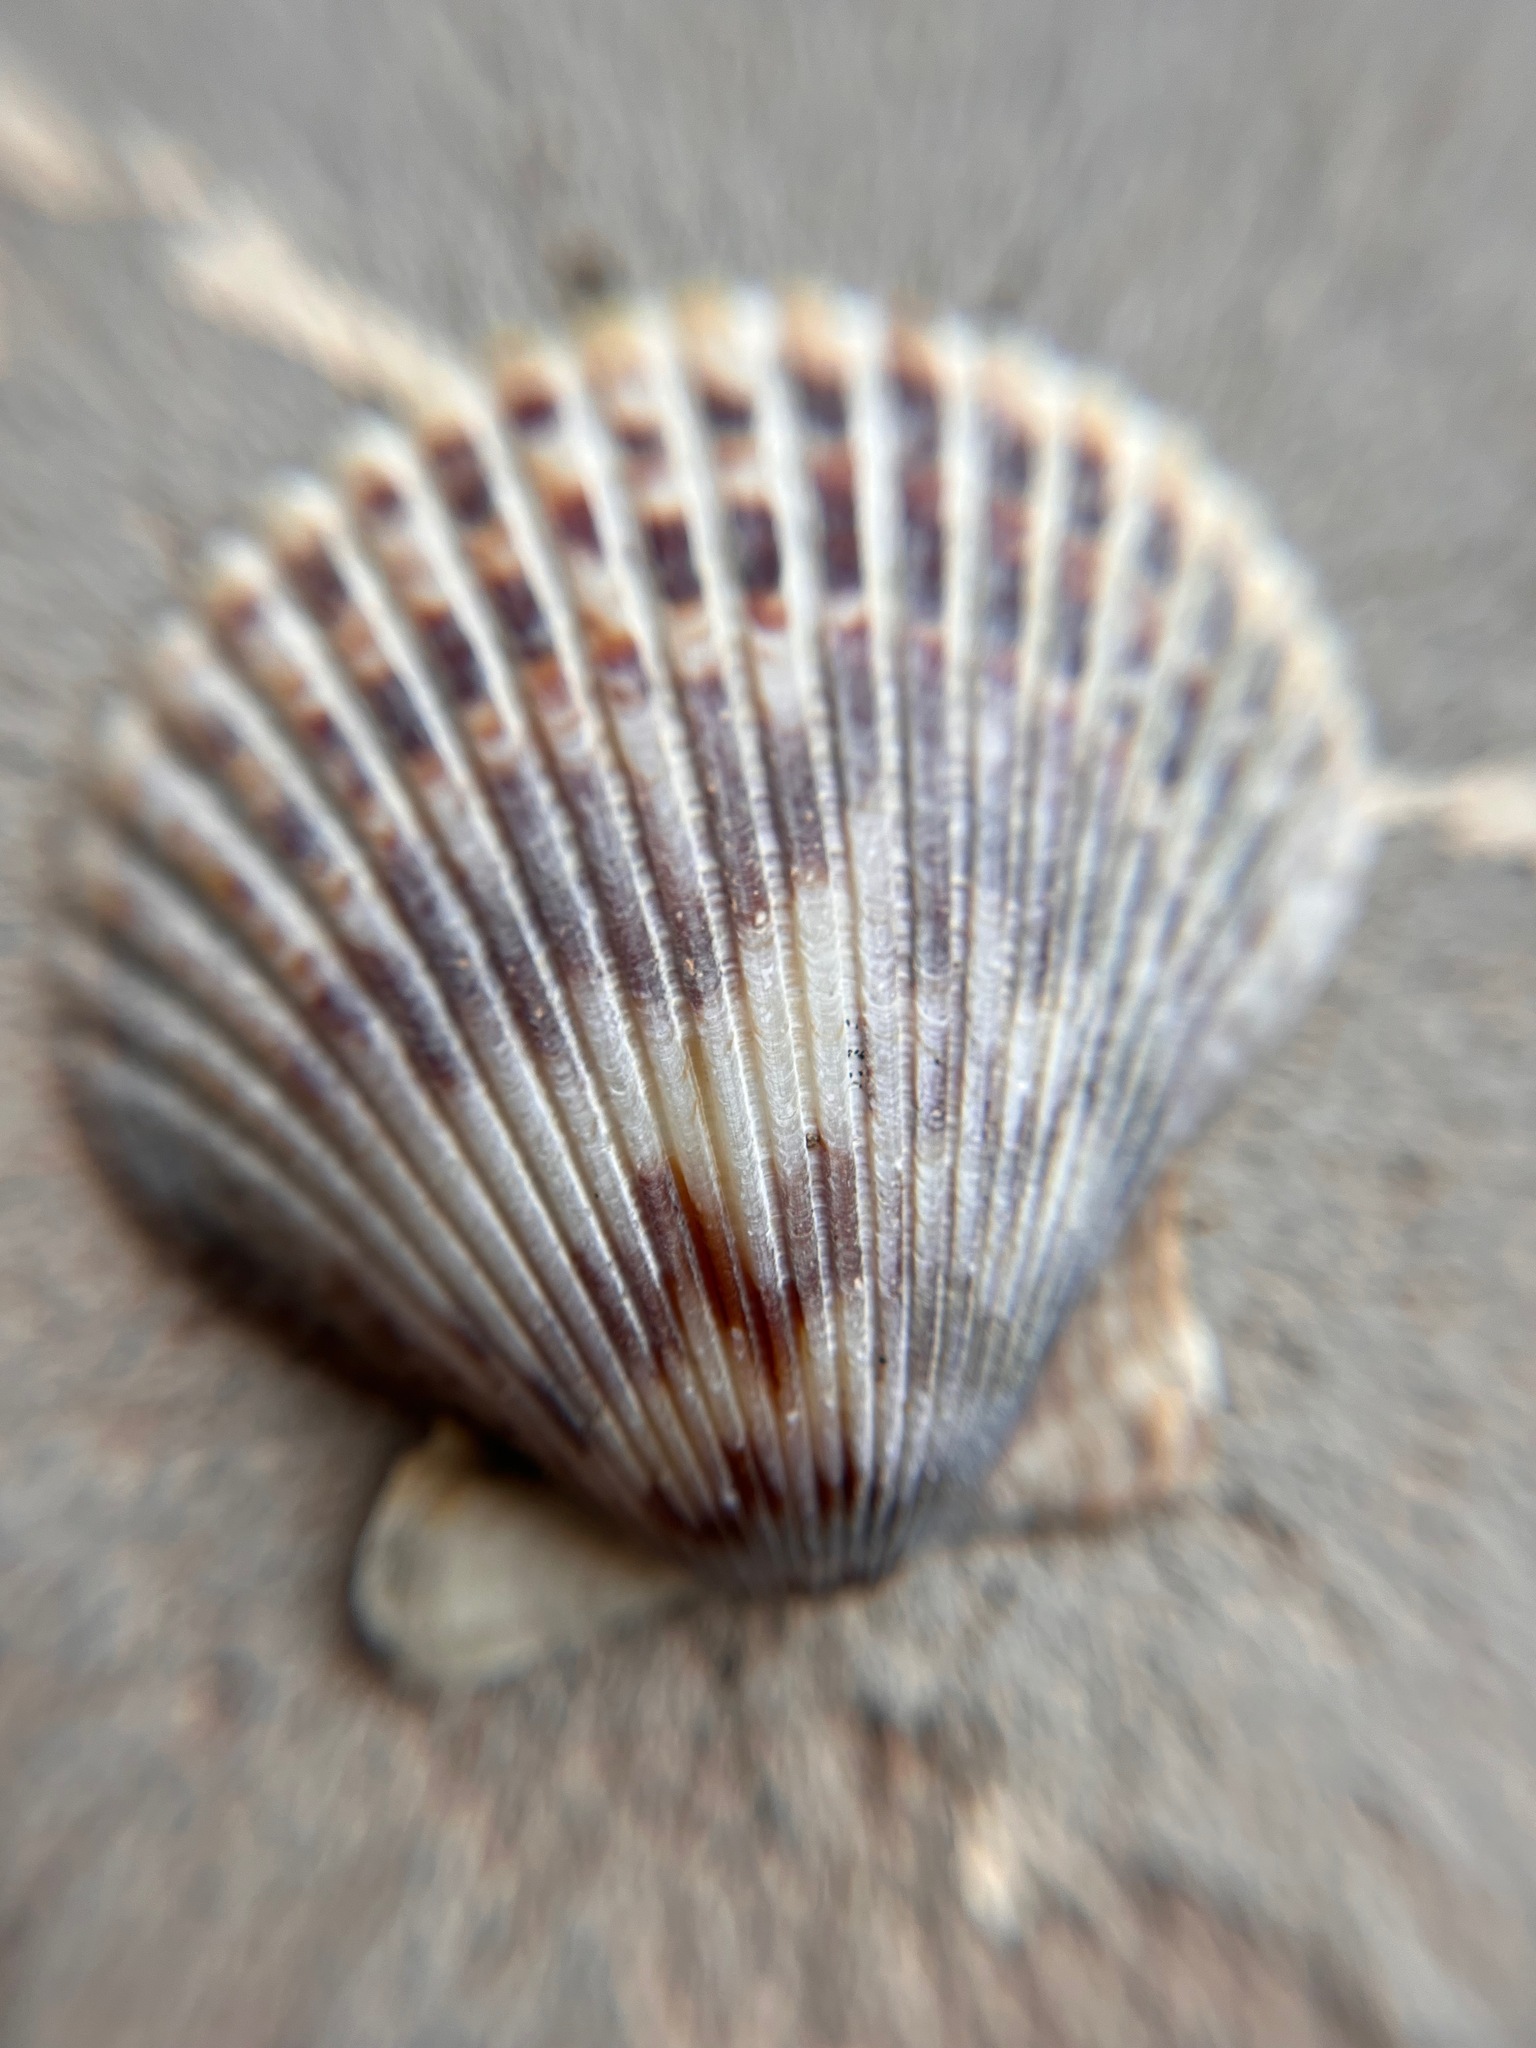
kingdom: Animalia
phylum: Mollusca
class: Bivalvia
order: Pectinida
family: Pectinidae
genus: Argopecten
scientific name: Argopecten ventricosus
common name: Catarina scallop
